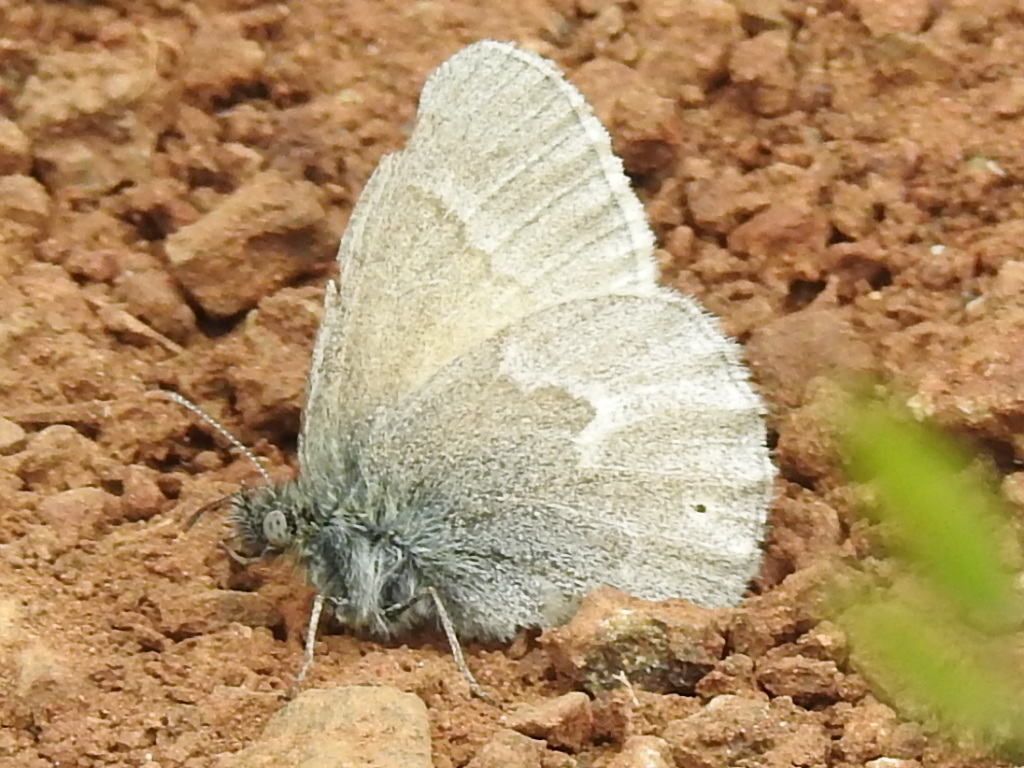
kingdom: Animalia
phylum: Arthropoda
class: Insecta
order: Lepidoptera
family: Nymphalidae
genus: Coenonympha
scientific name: Coenonympha california
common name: Common ringlet
